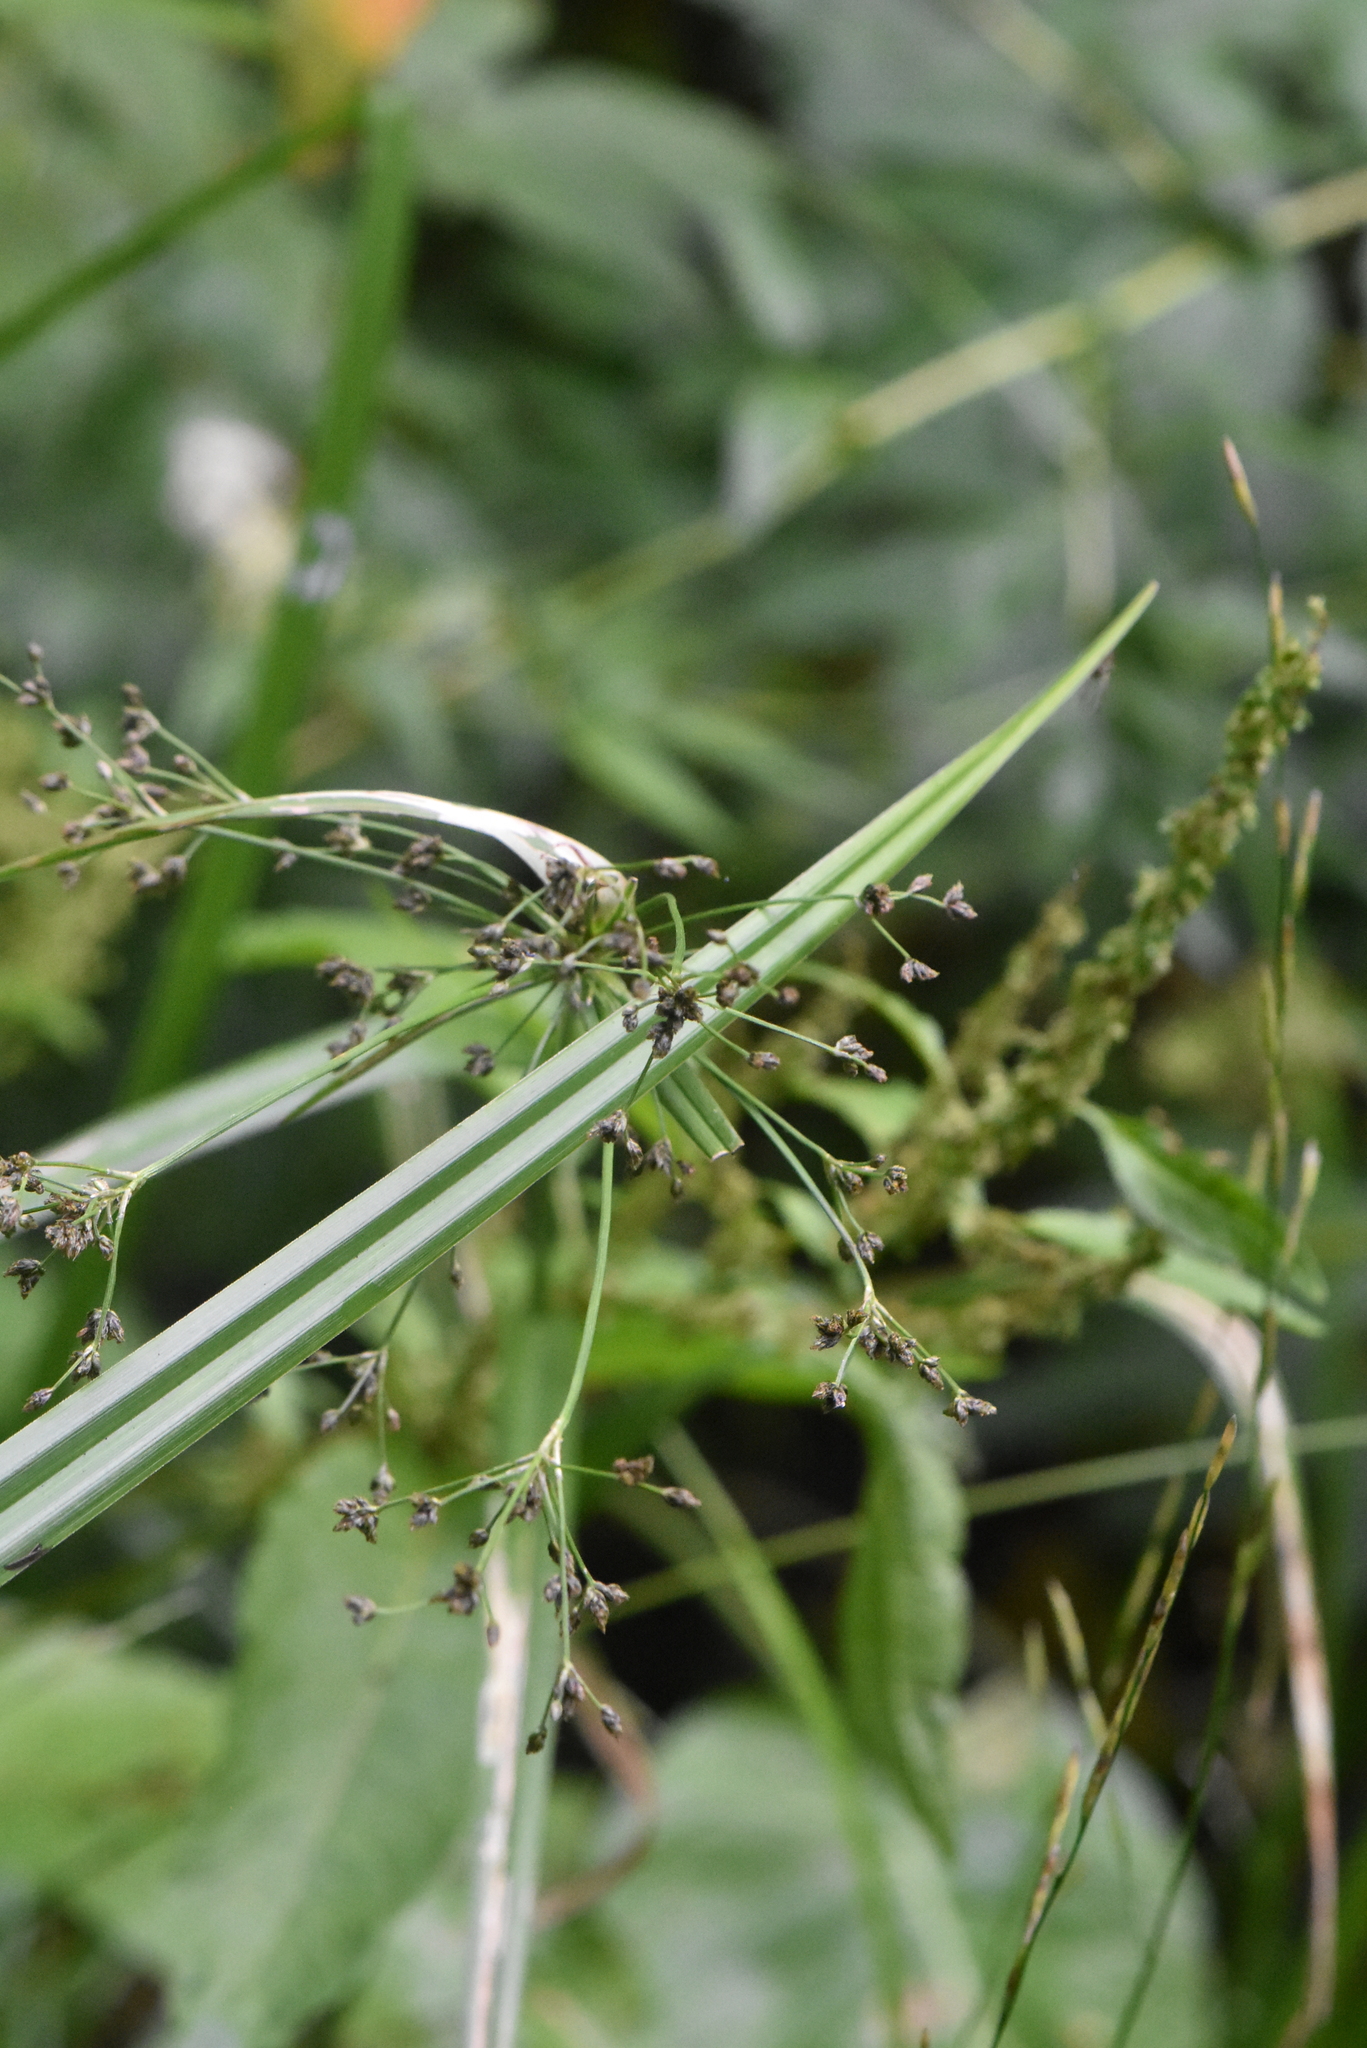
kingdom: Plantae
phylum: Tracheophyta
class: Liliopsida
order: Poales
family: Cyperaceae
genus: Scirpus
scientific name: Scirpus sylvaticus
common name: Wood club-rush
